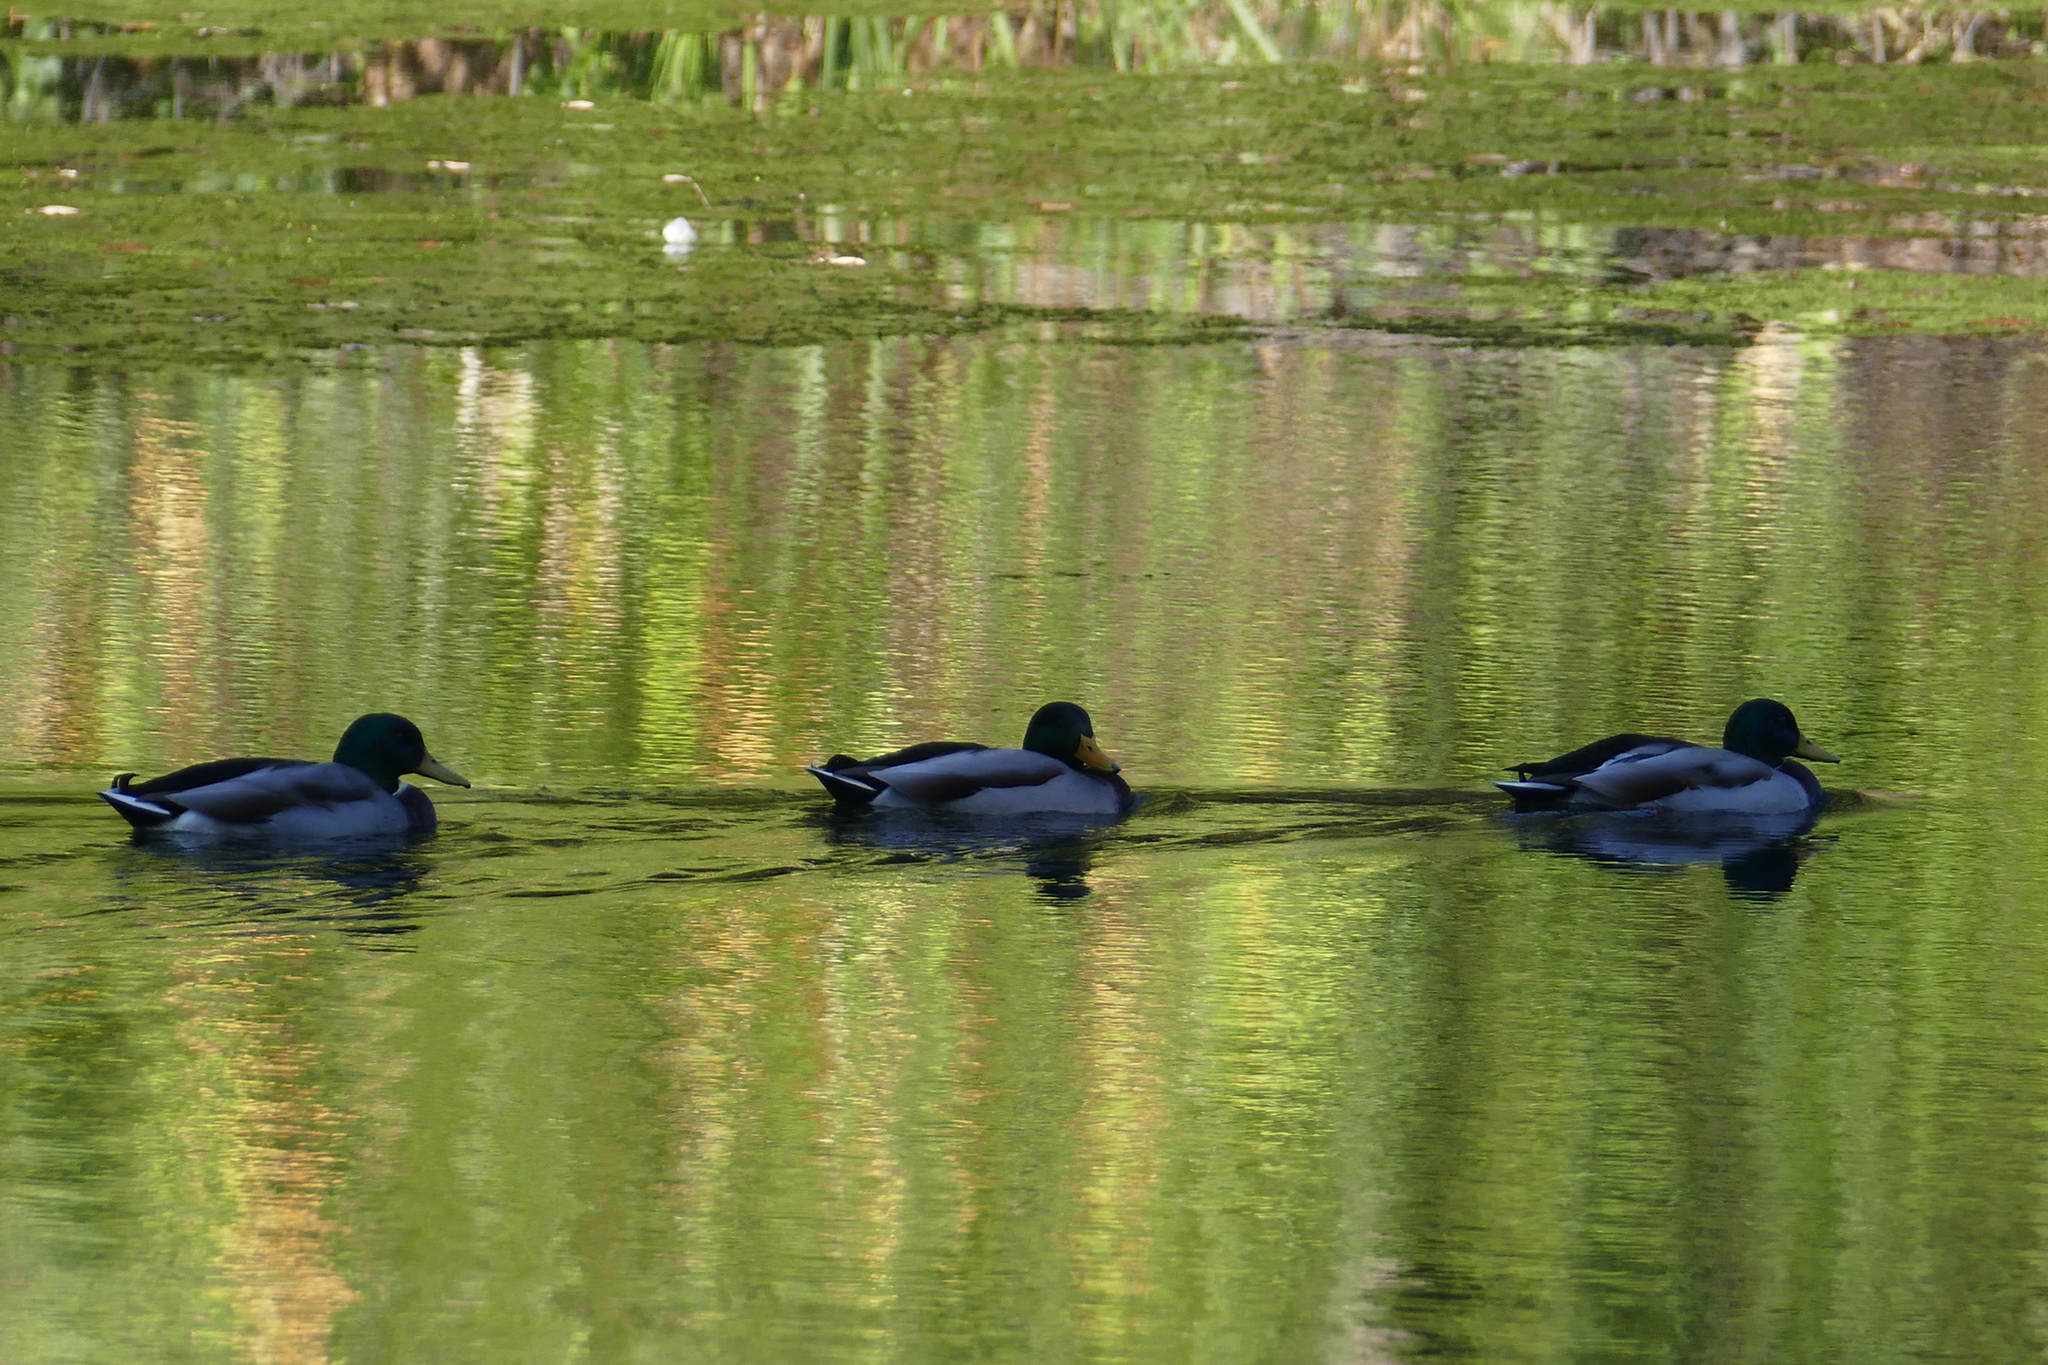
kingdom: Animalia
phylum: Chordata
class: Aves
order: Anseriformes
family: Anatidae
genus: Anas
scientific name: Anas platyrhynchos
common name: Mallard
